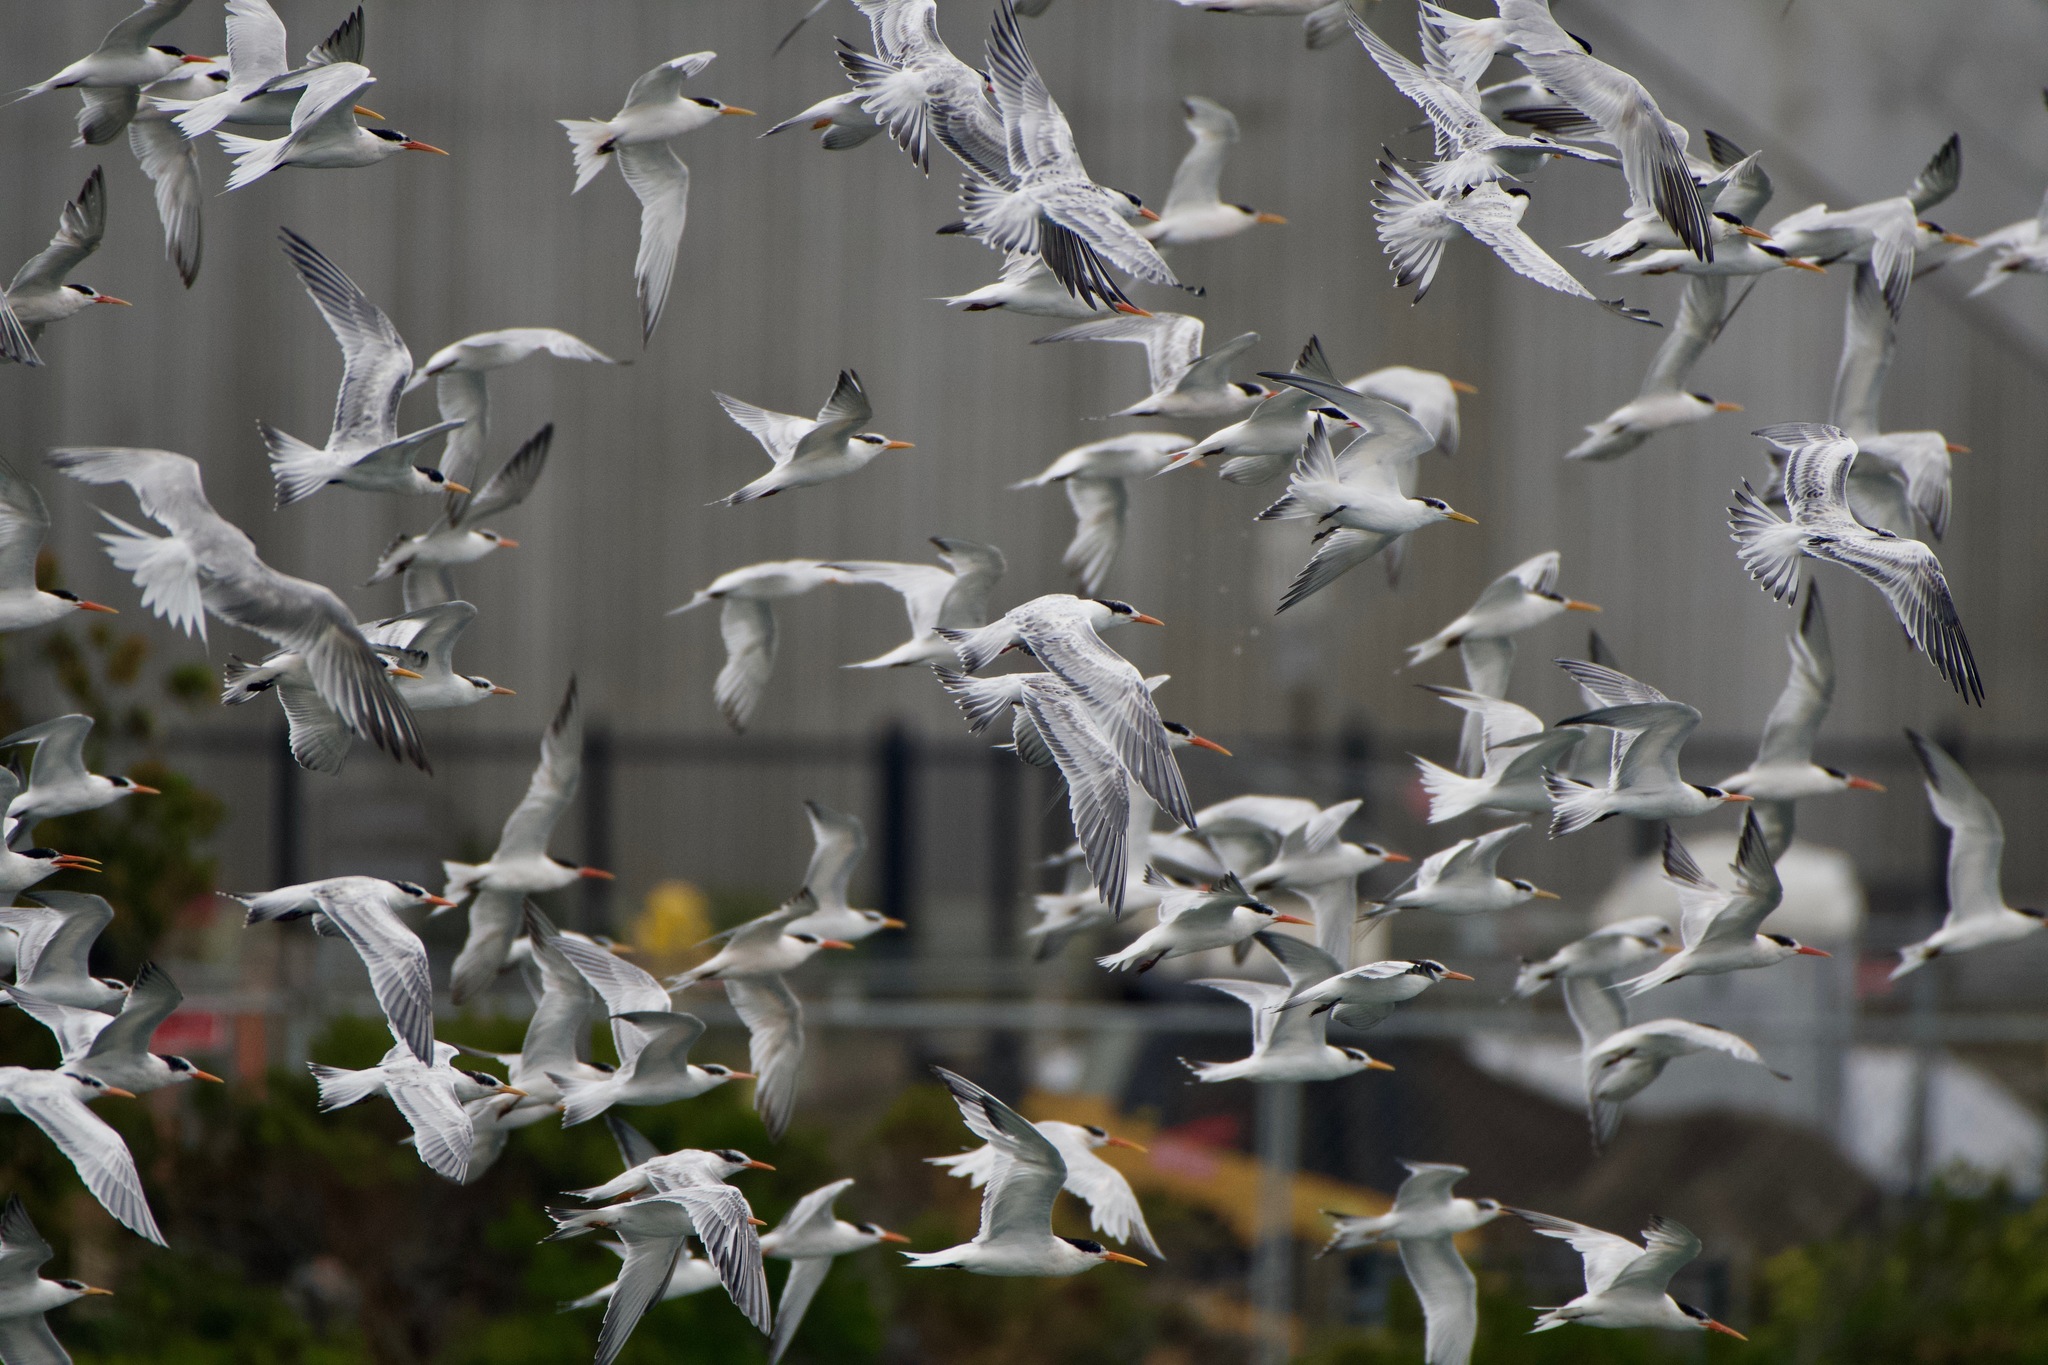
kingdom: Animalia
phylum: Chordata
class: Aves
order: Charadriiformes
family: Laridae
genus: Thalasseus
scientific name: Thalasseus elegans
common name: Elegant tern
